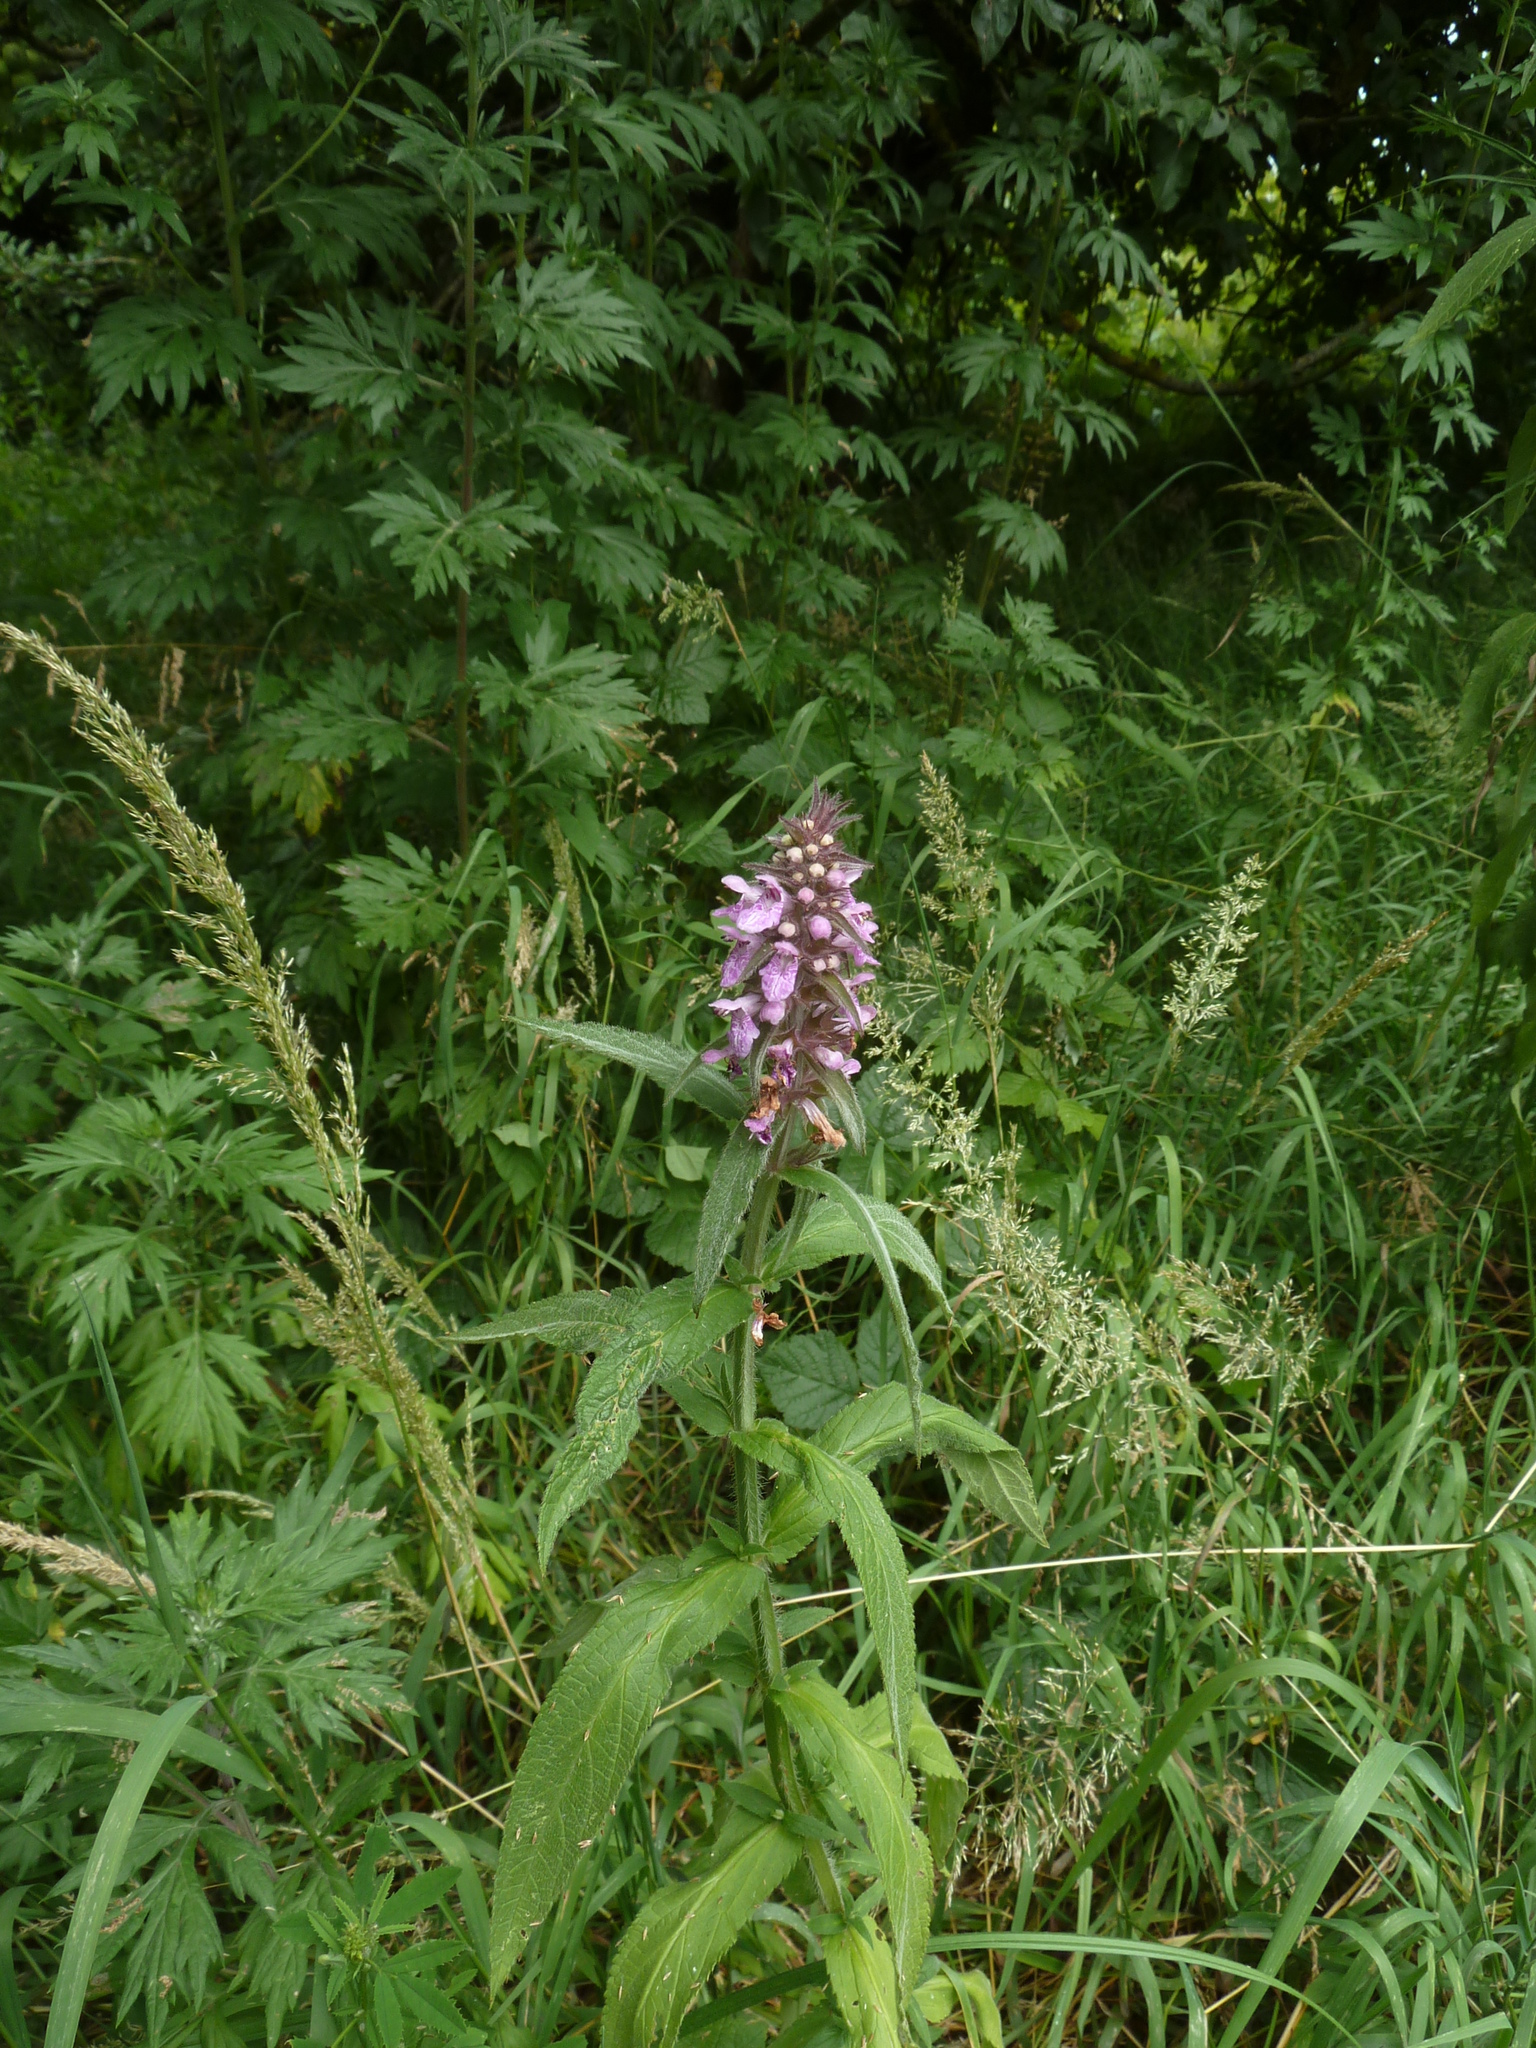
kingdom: Plantae
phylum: Tracheophyta
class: Magnoliopsida
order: Lamiales
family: Lamiaceae
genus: Stachys
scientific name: Stachys palustris
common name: Marsh woundwort
